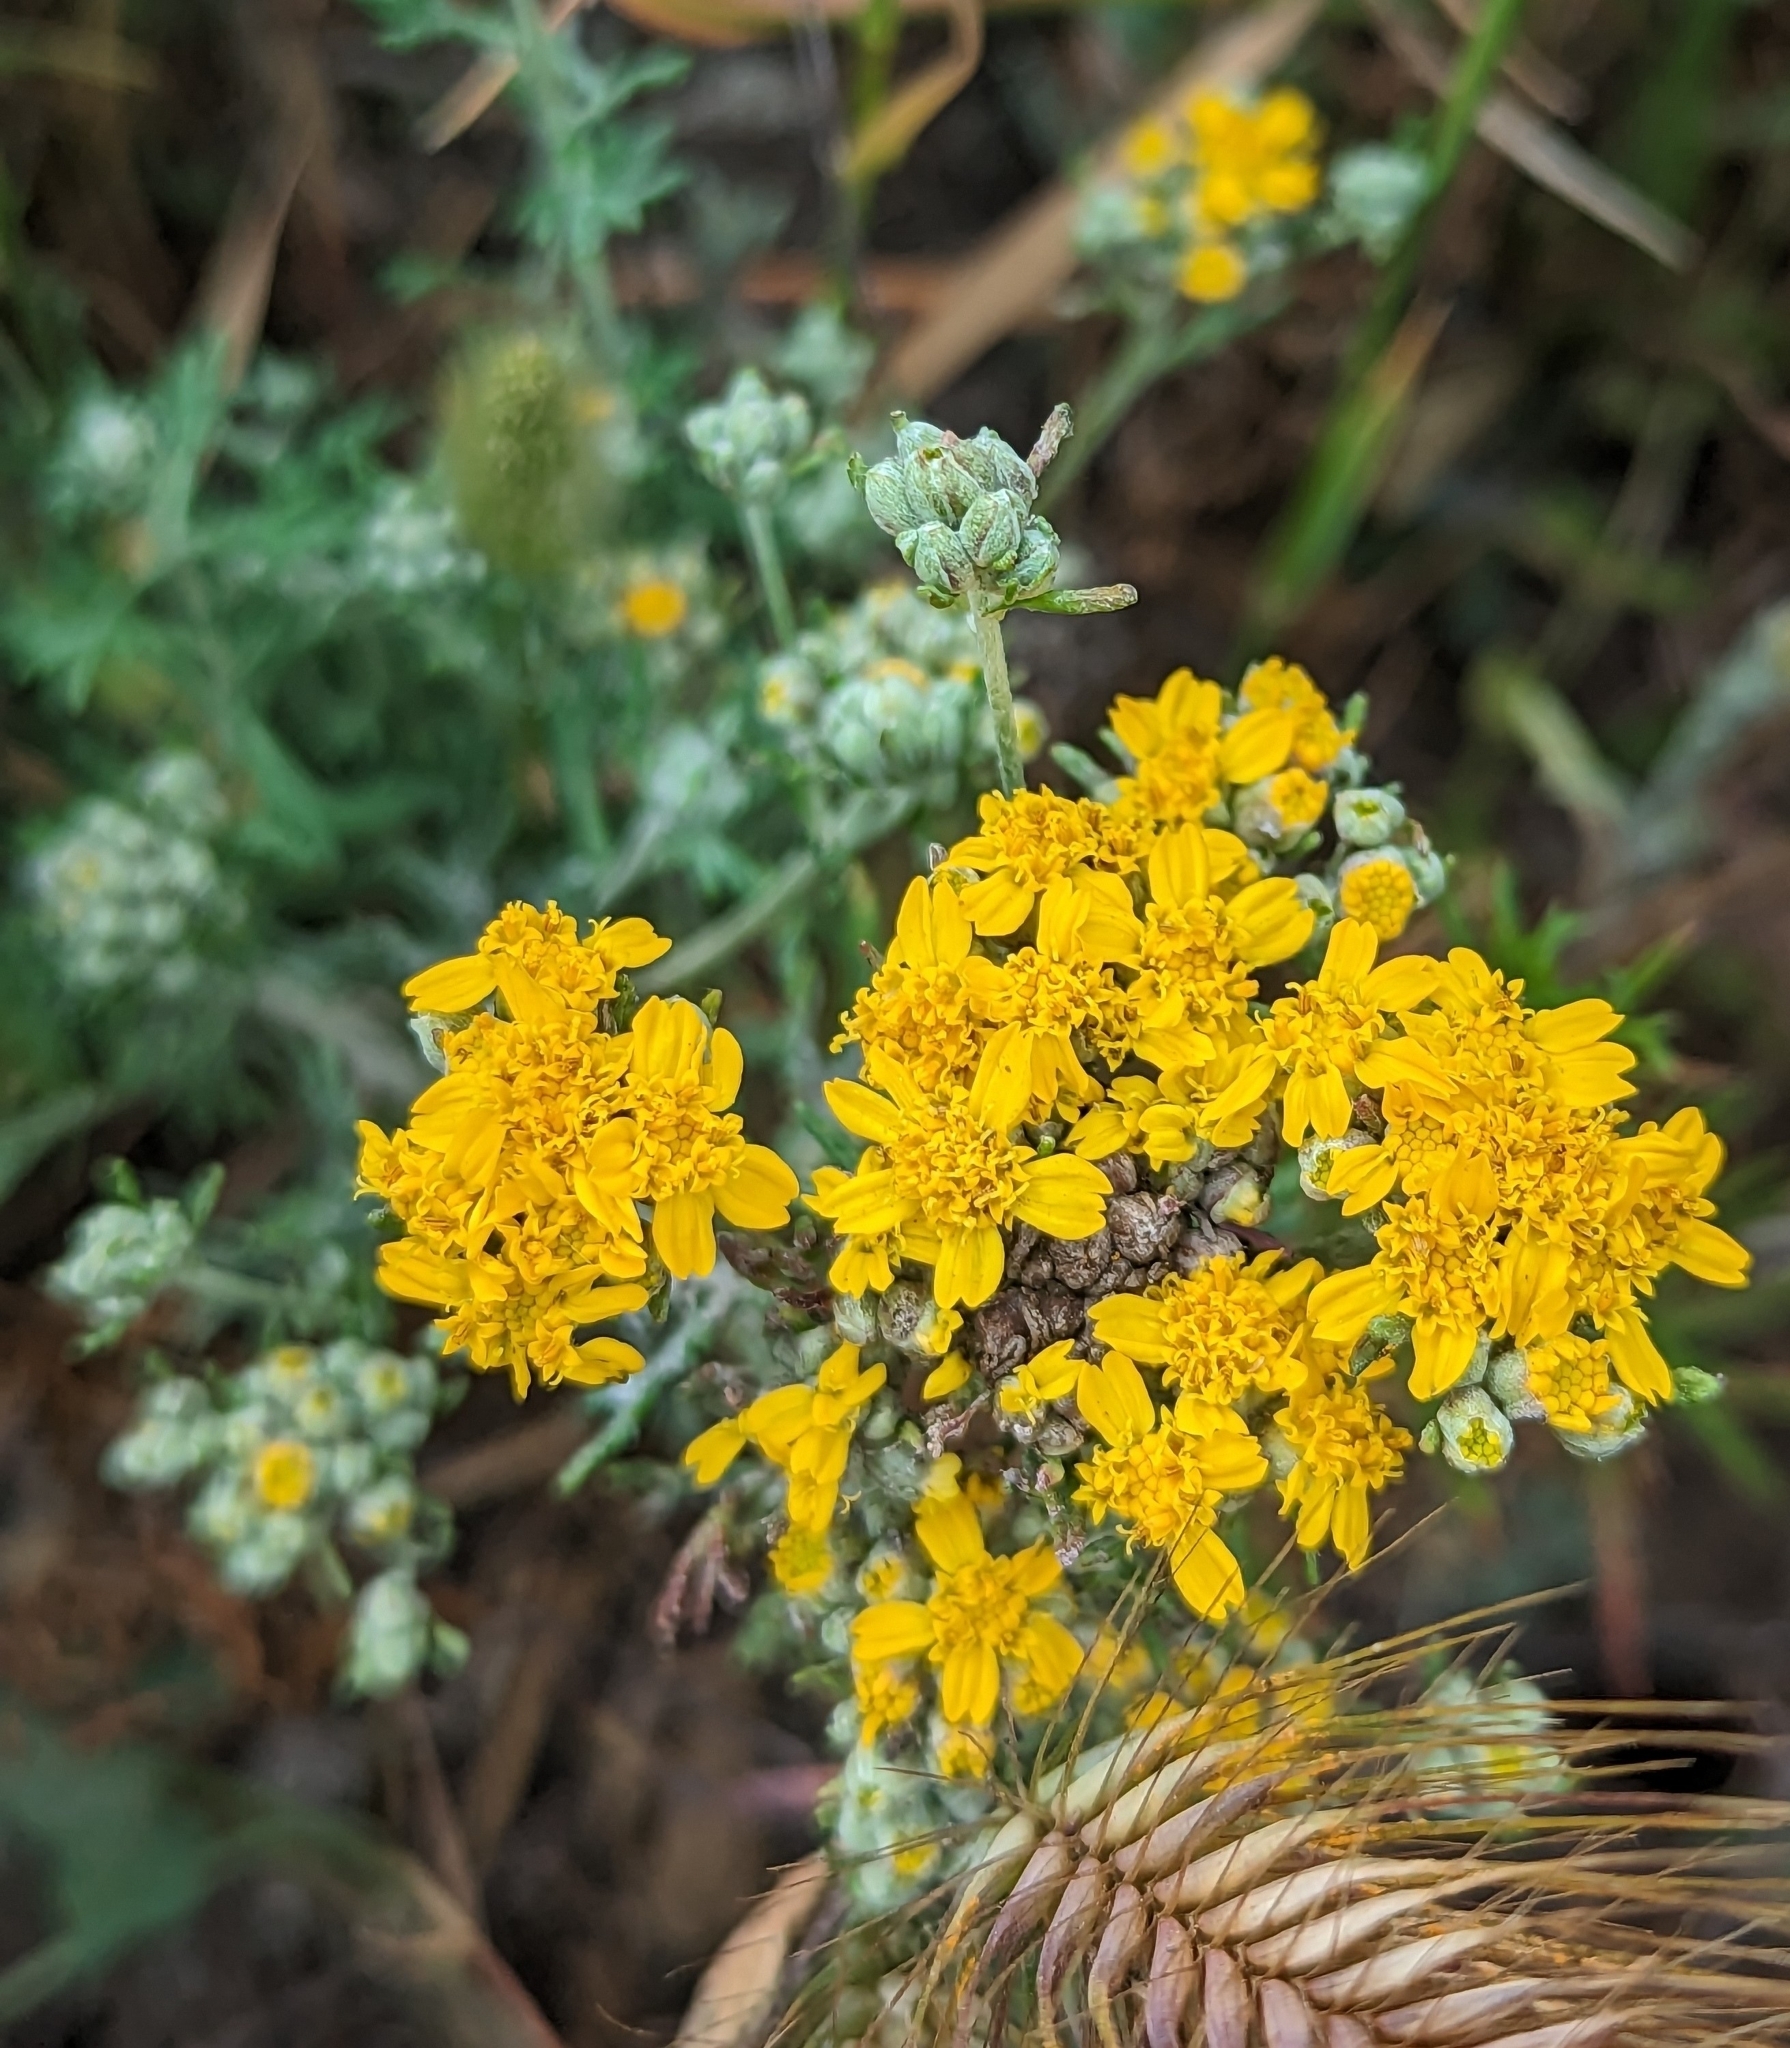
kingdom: Plantae
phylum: Tracheophyta
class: Magnoliopsida
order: Asterales
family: Asteraceae
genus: Eriophyllum
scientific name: Eriophyllum confertiflorum
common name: Golden-yarrow
